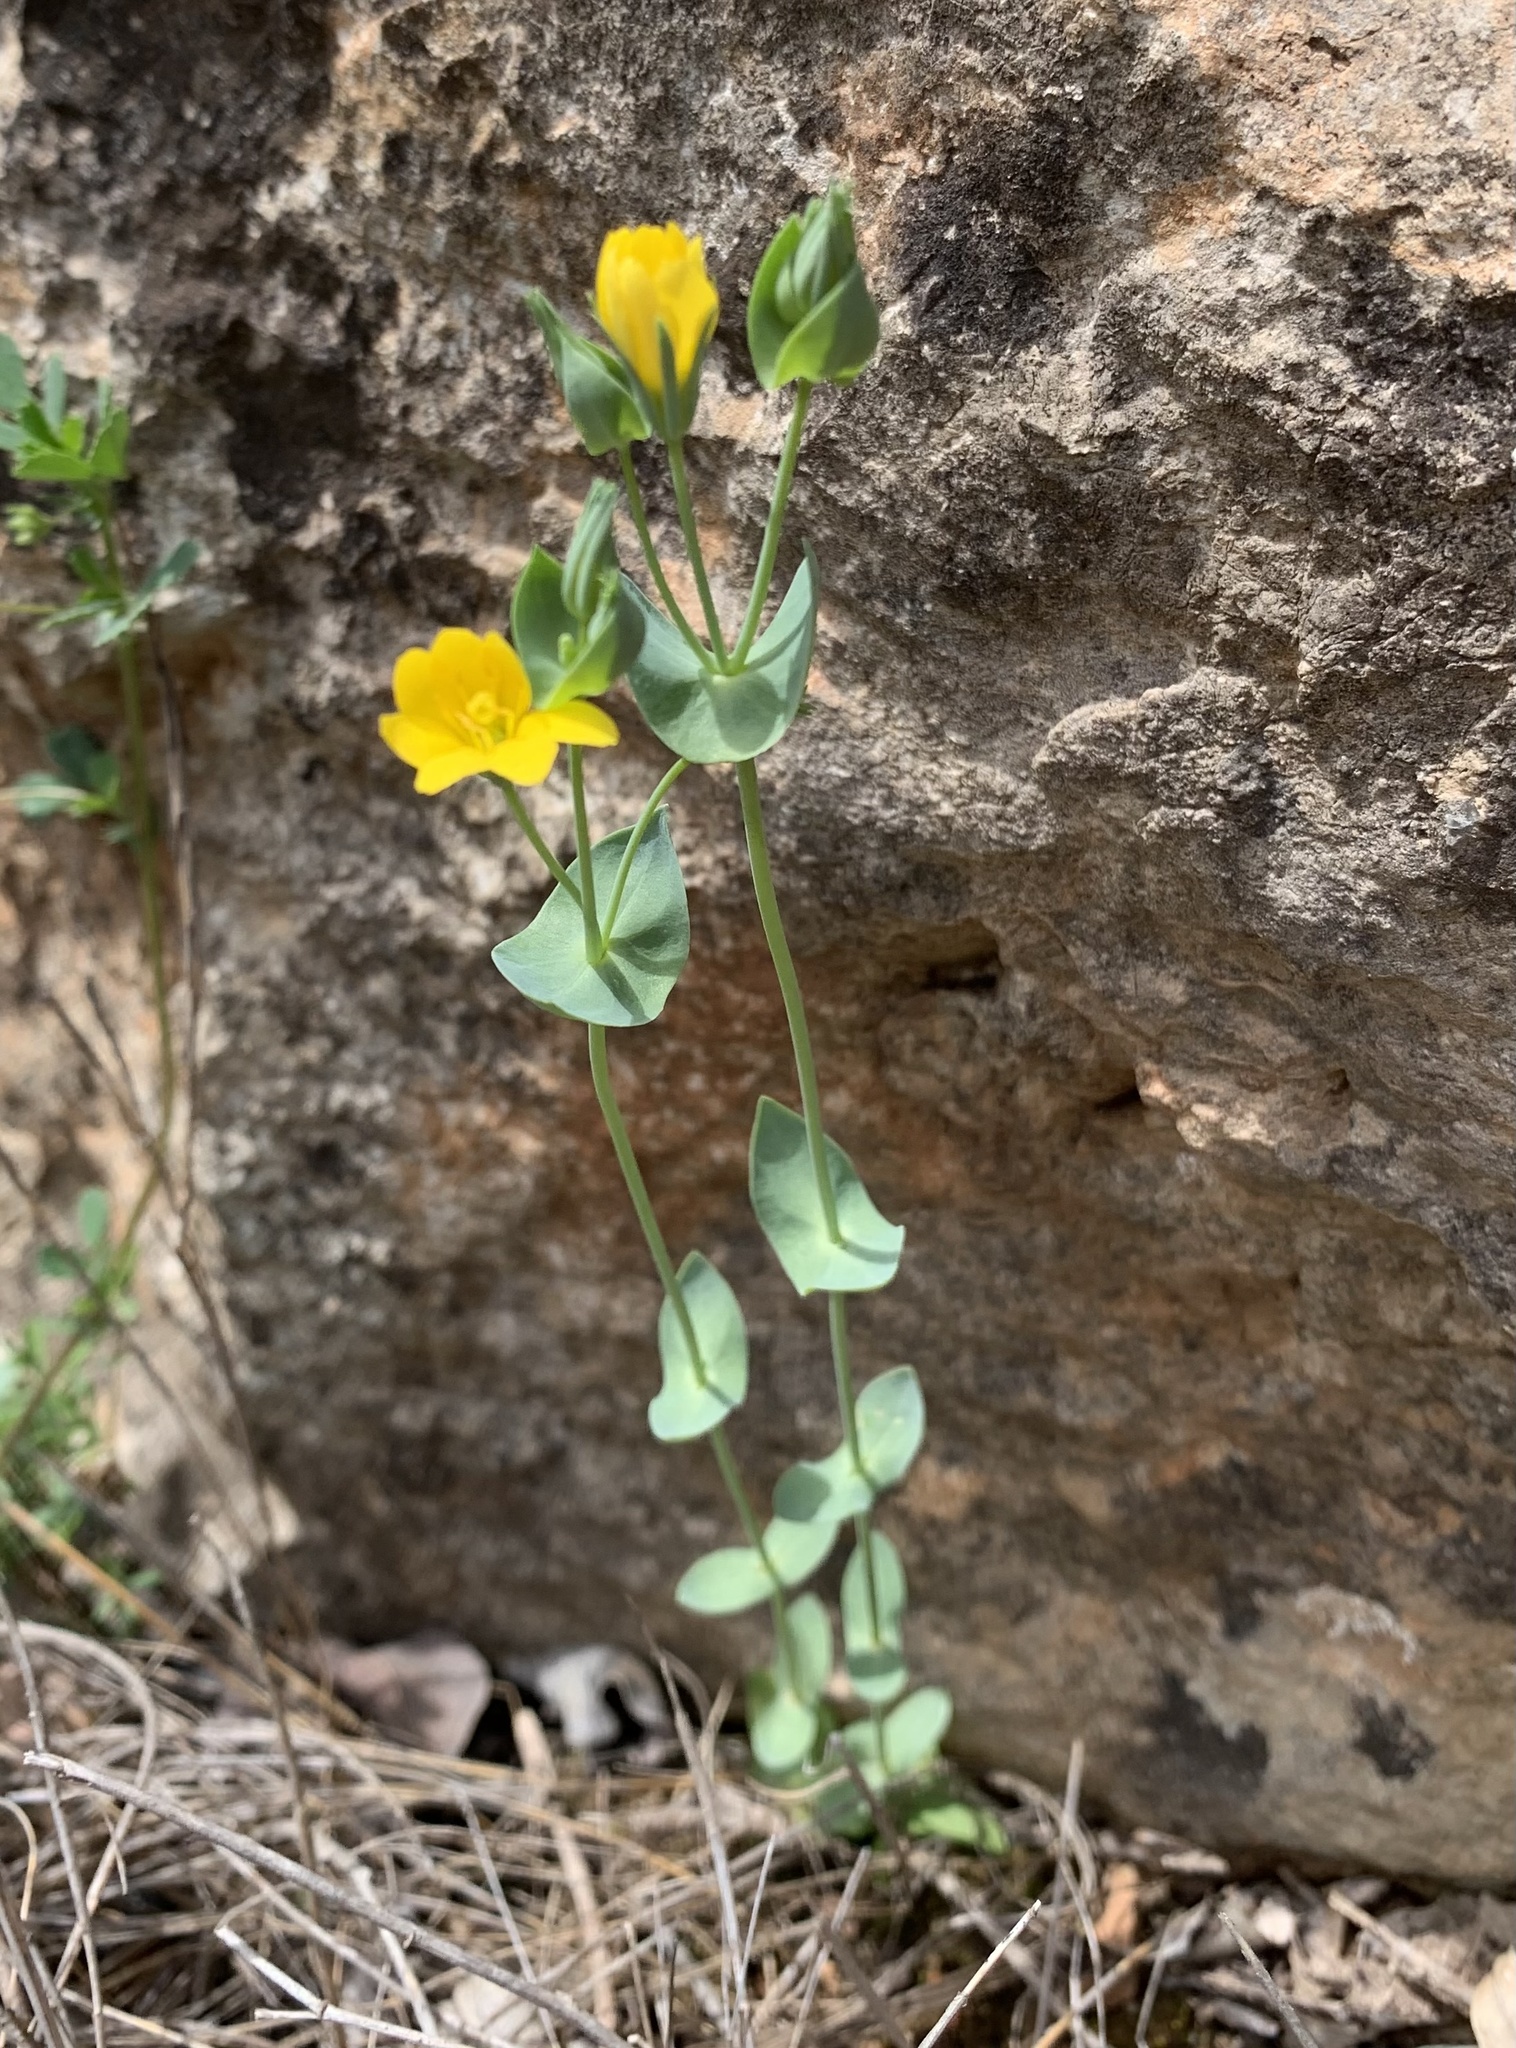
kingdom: Plantae
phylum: Tracheophyta
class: Magnoliopsida
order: Gentianales
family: Gentianaceae
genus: Blackstonia
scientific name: Blackstonia perfoliata
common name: Yellow-wort
